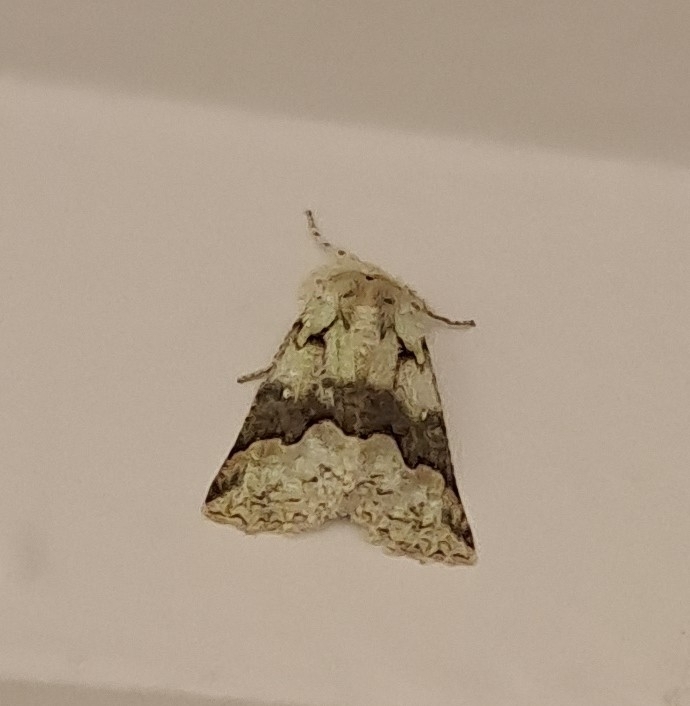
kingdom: Animalia
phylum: Arthropoda
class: Insecta
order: Lepidoptera
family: Geometridae
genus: Declana
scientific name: Declana floccosa
